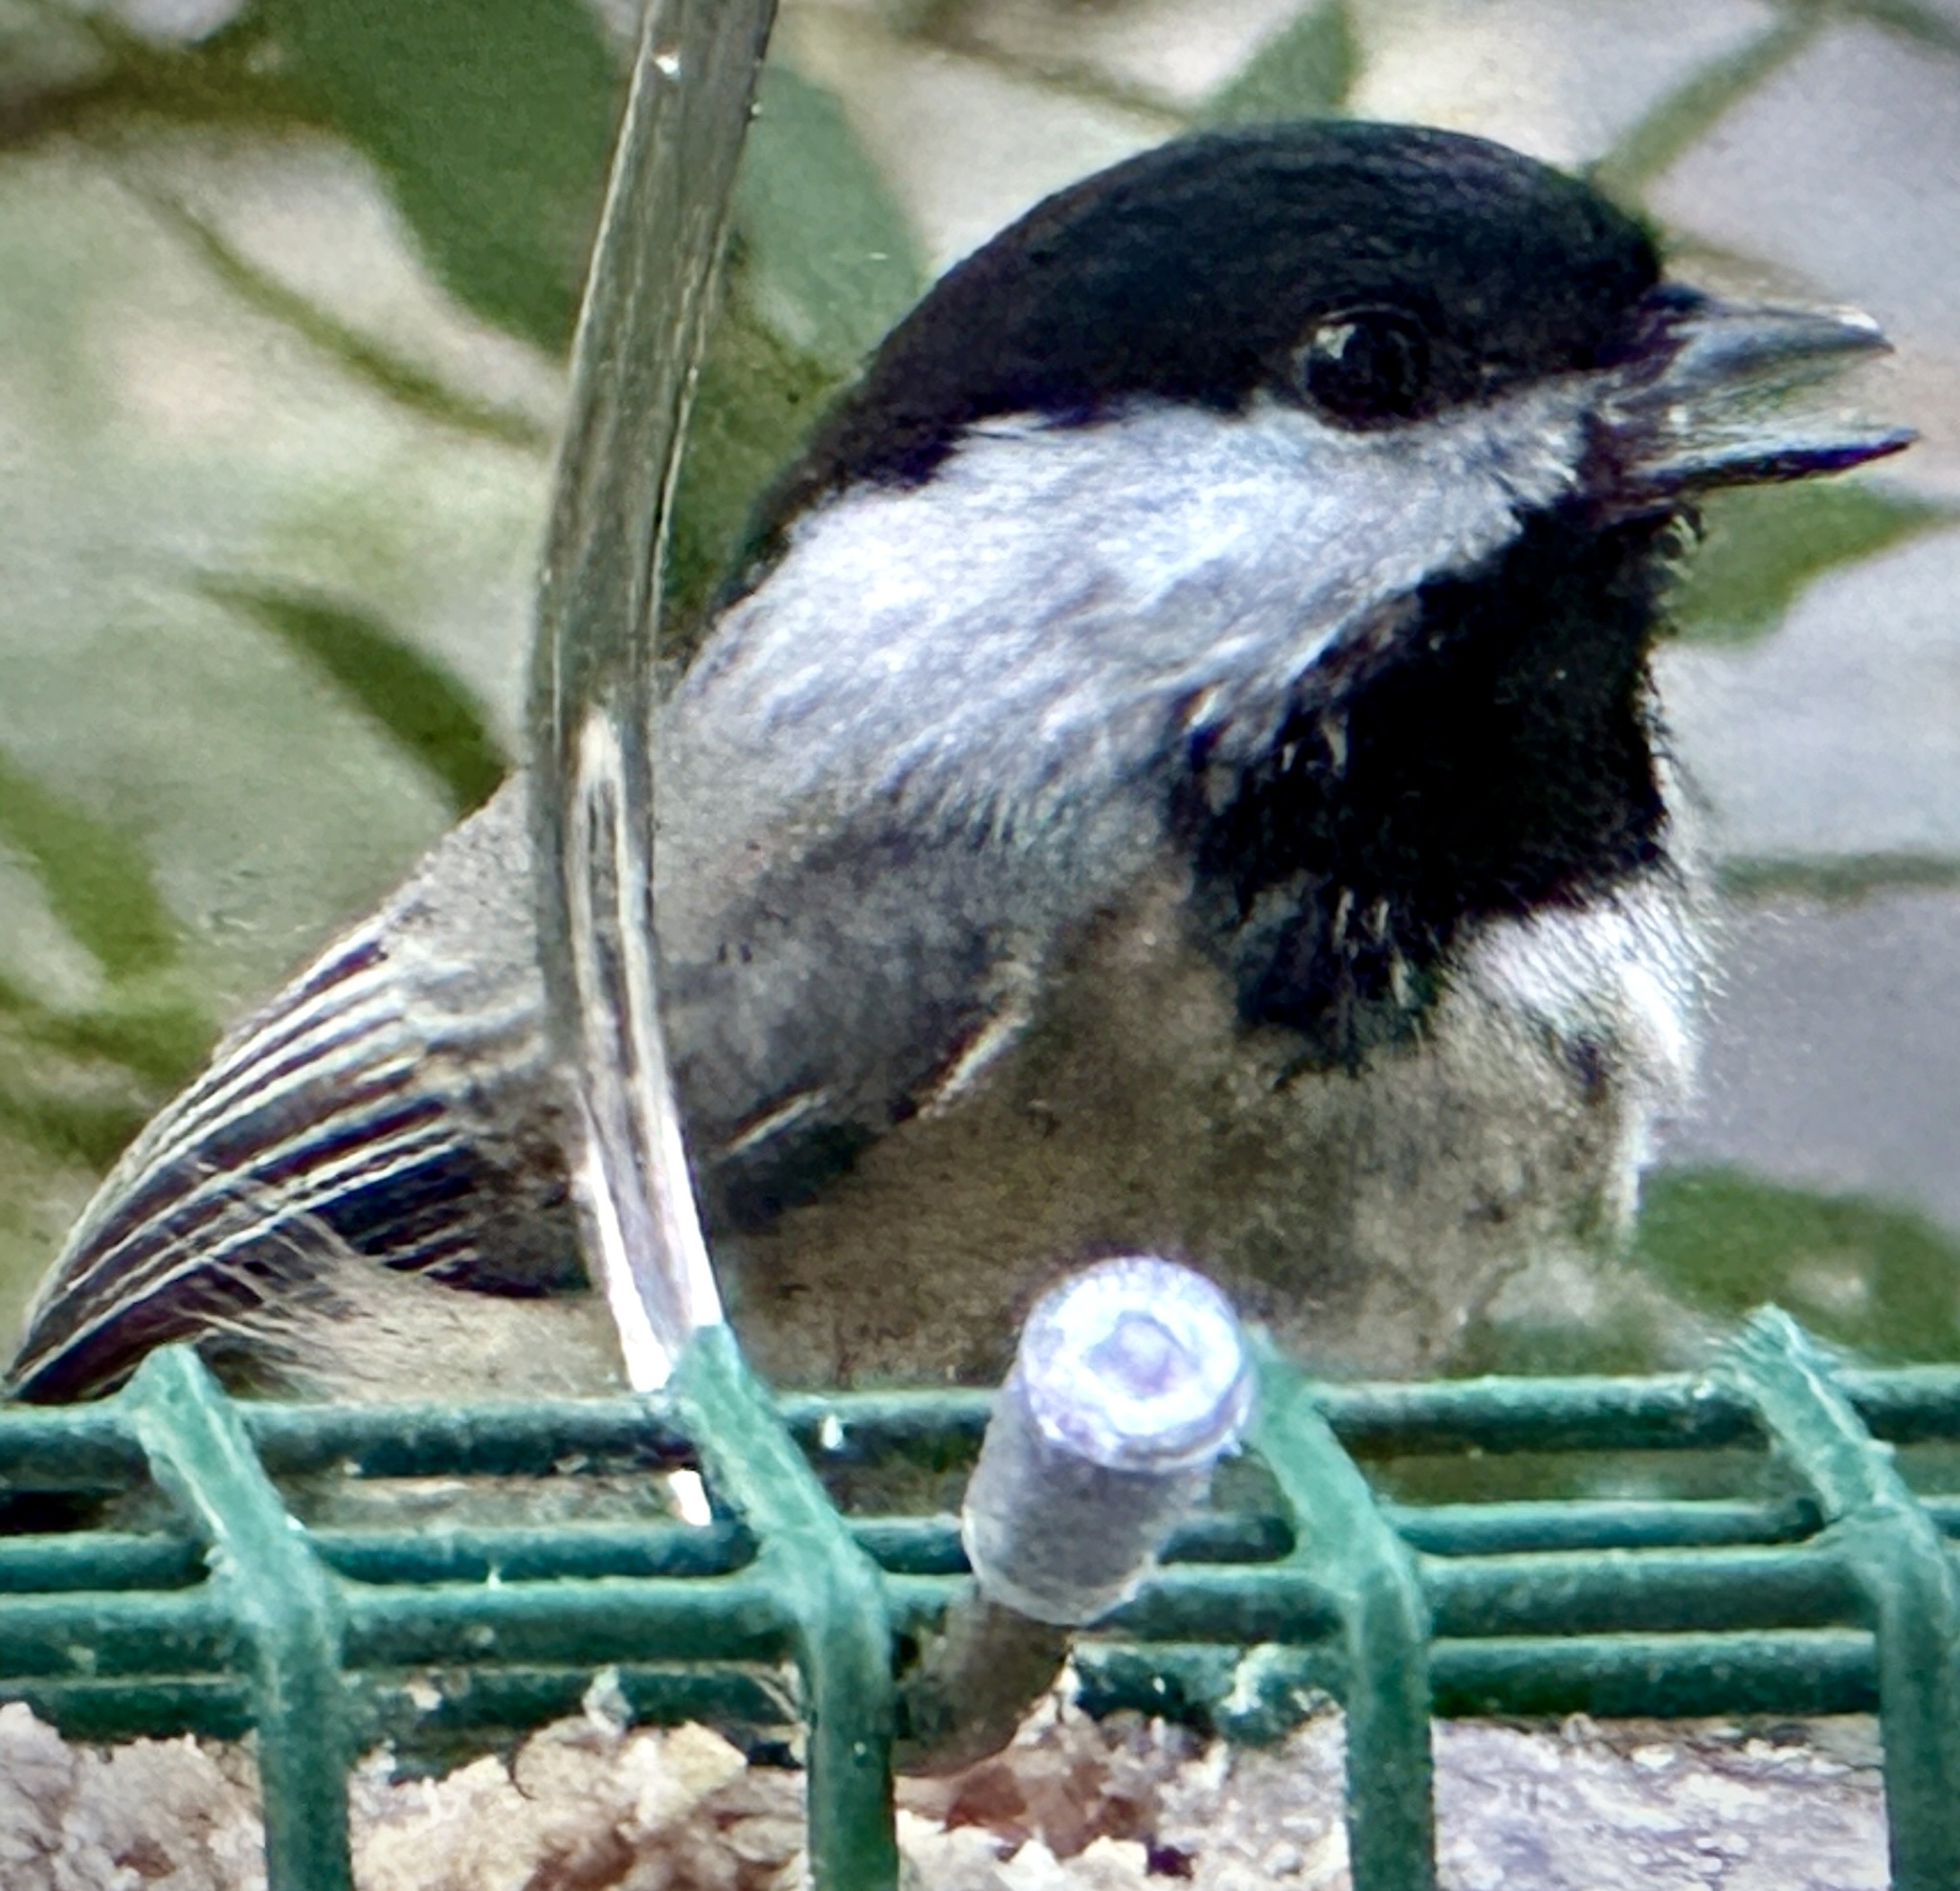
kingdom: Animalia
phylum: Chordata
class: Aves
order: Passeriformes
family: Paridae
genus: Poecile
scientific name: Poecile carolinensis
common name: Carolina chickadee
